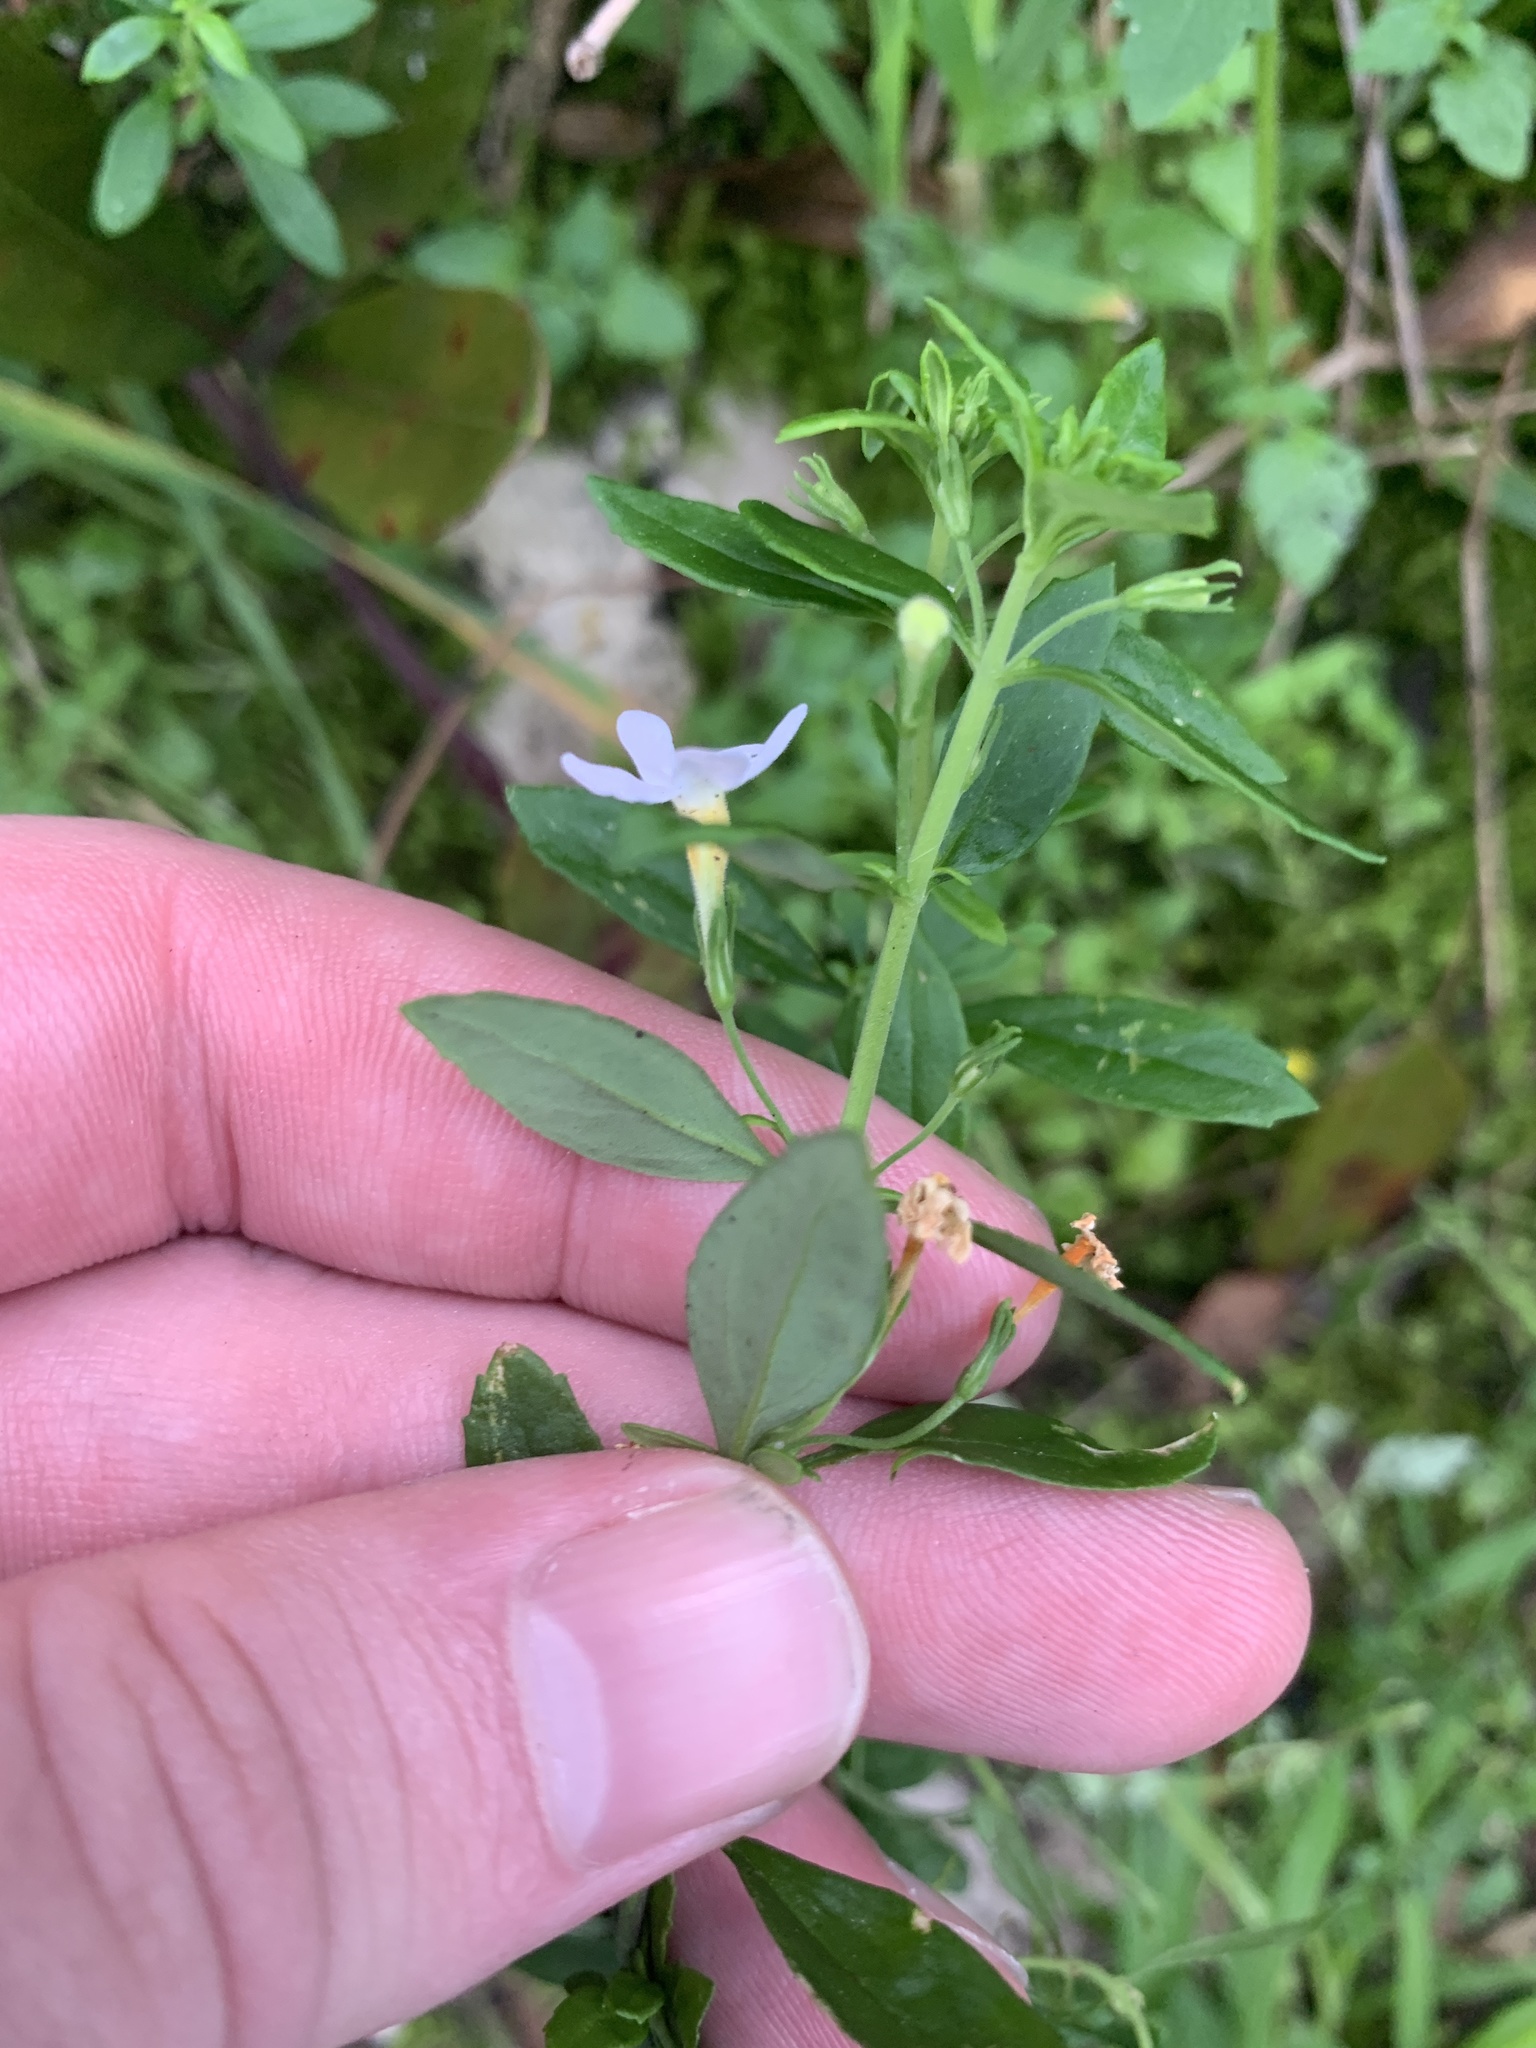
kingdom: Plantae
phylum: Tracheophyta
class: Magnoliopsida
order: Lamiales
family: Scrophulariaceae
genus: Chaenostoma
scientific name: Chaenostoma integrifolium
